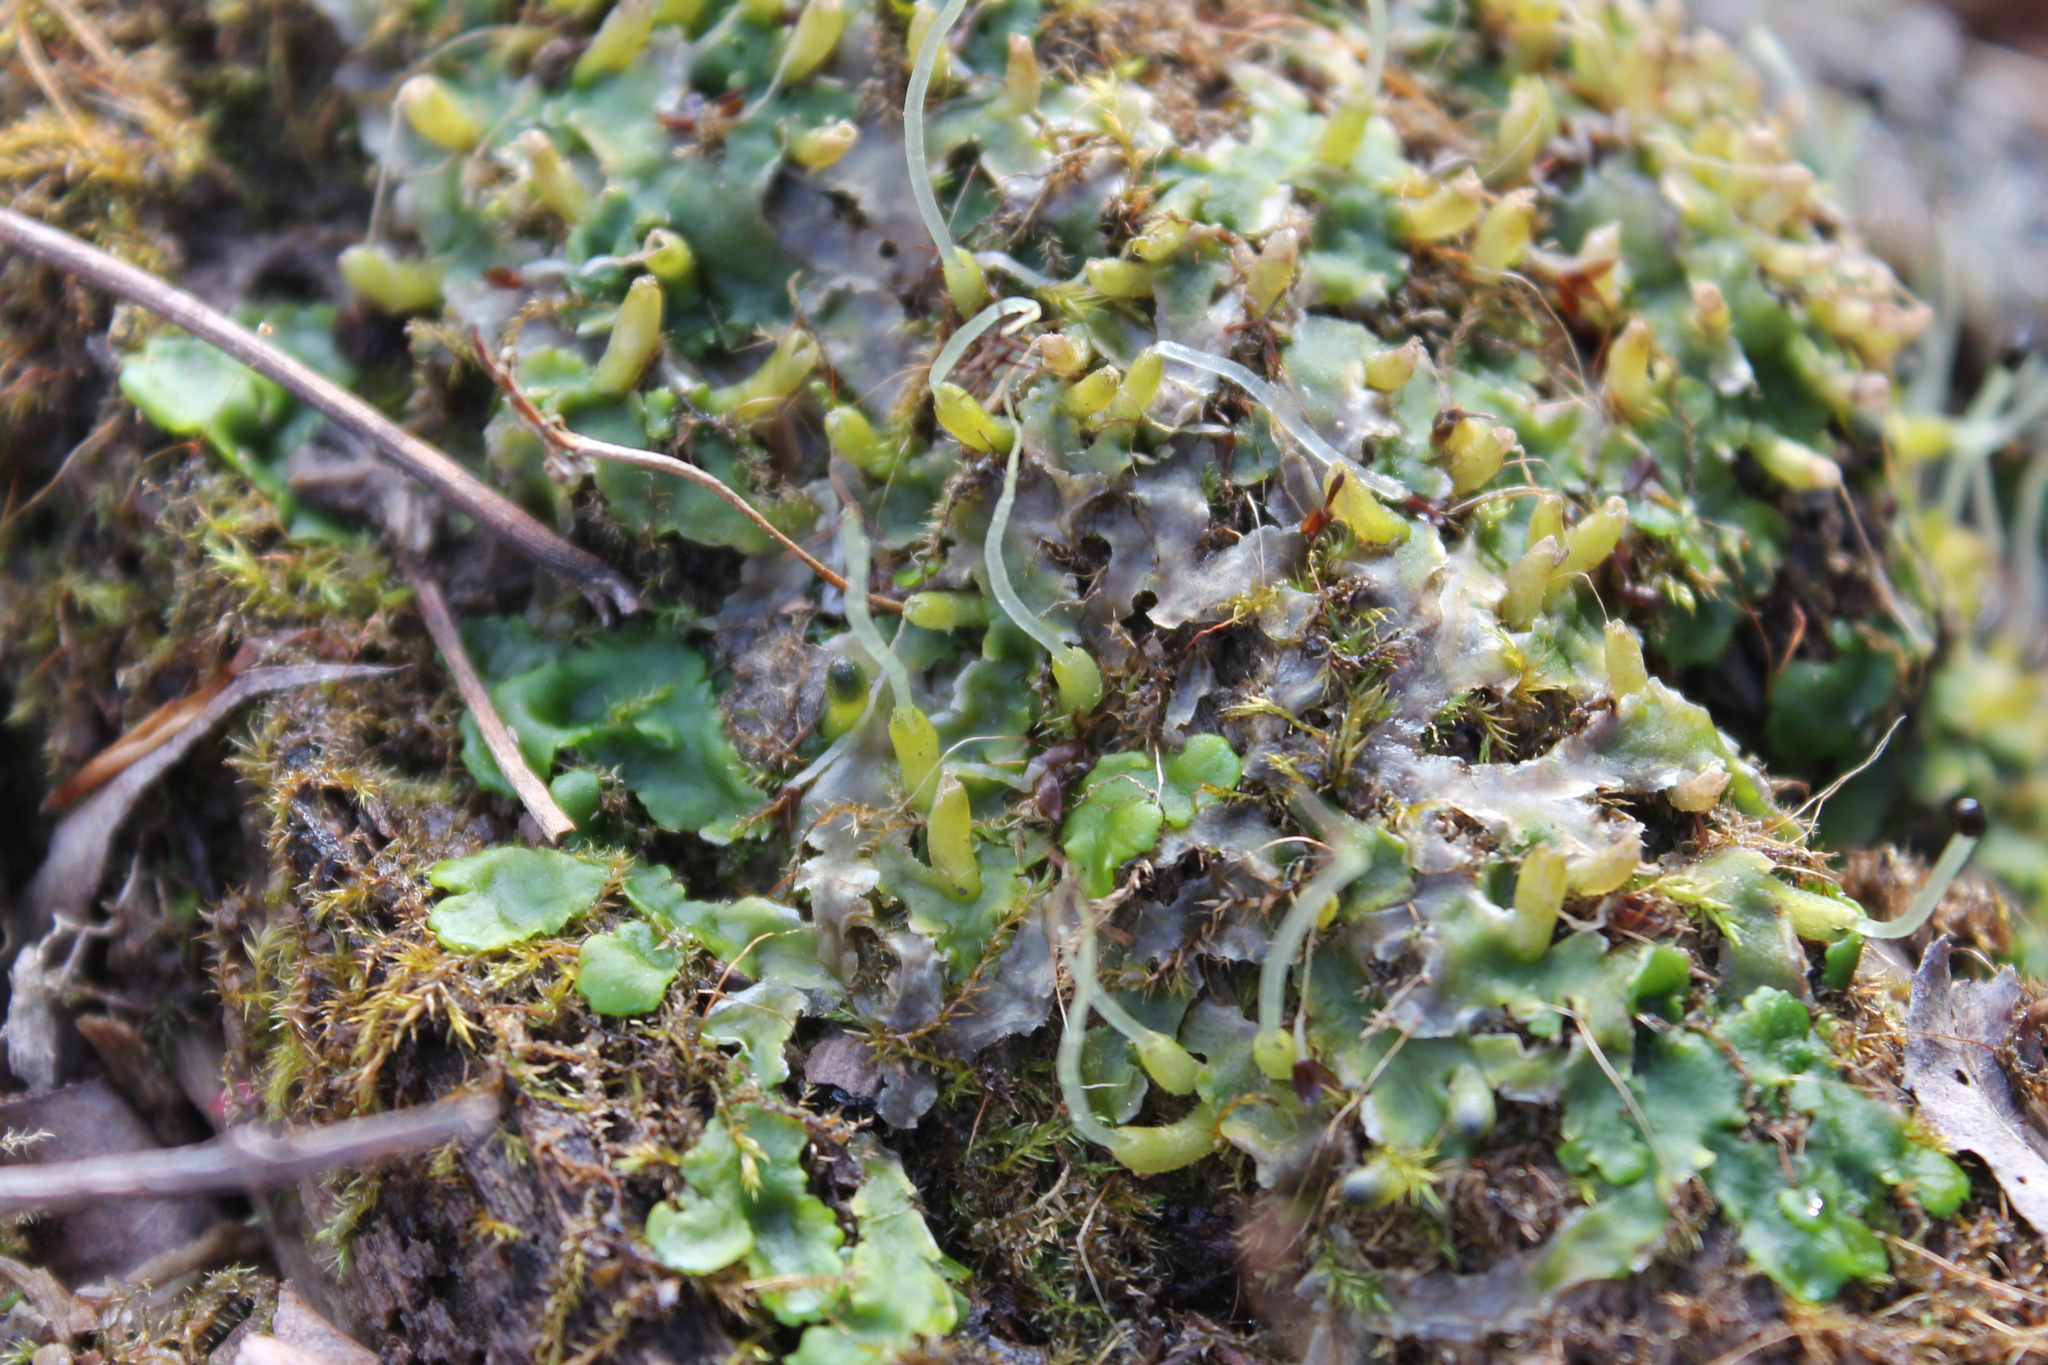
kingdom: Plantae
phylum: Marchantiophyta
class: Jungermanniopsida
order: Metzgeriales
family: Aneuraceae
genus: Aneura
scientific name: Aneura pinguis
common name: Common greasewort
